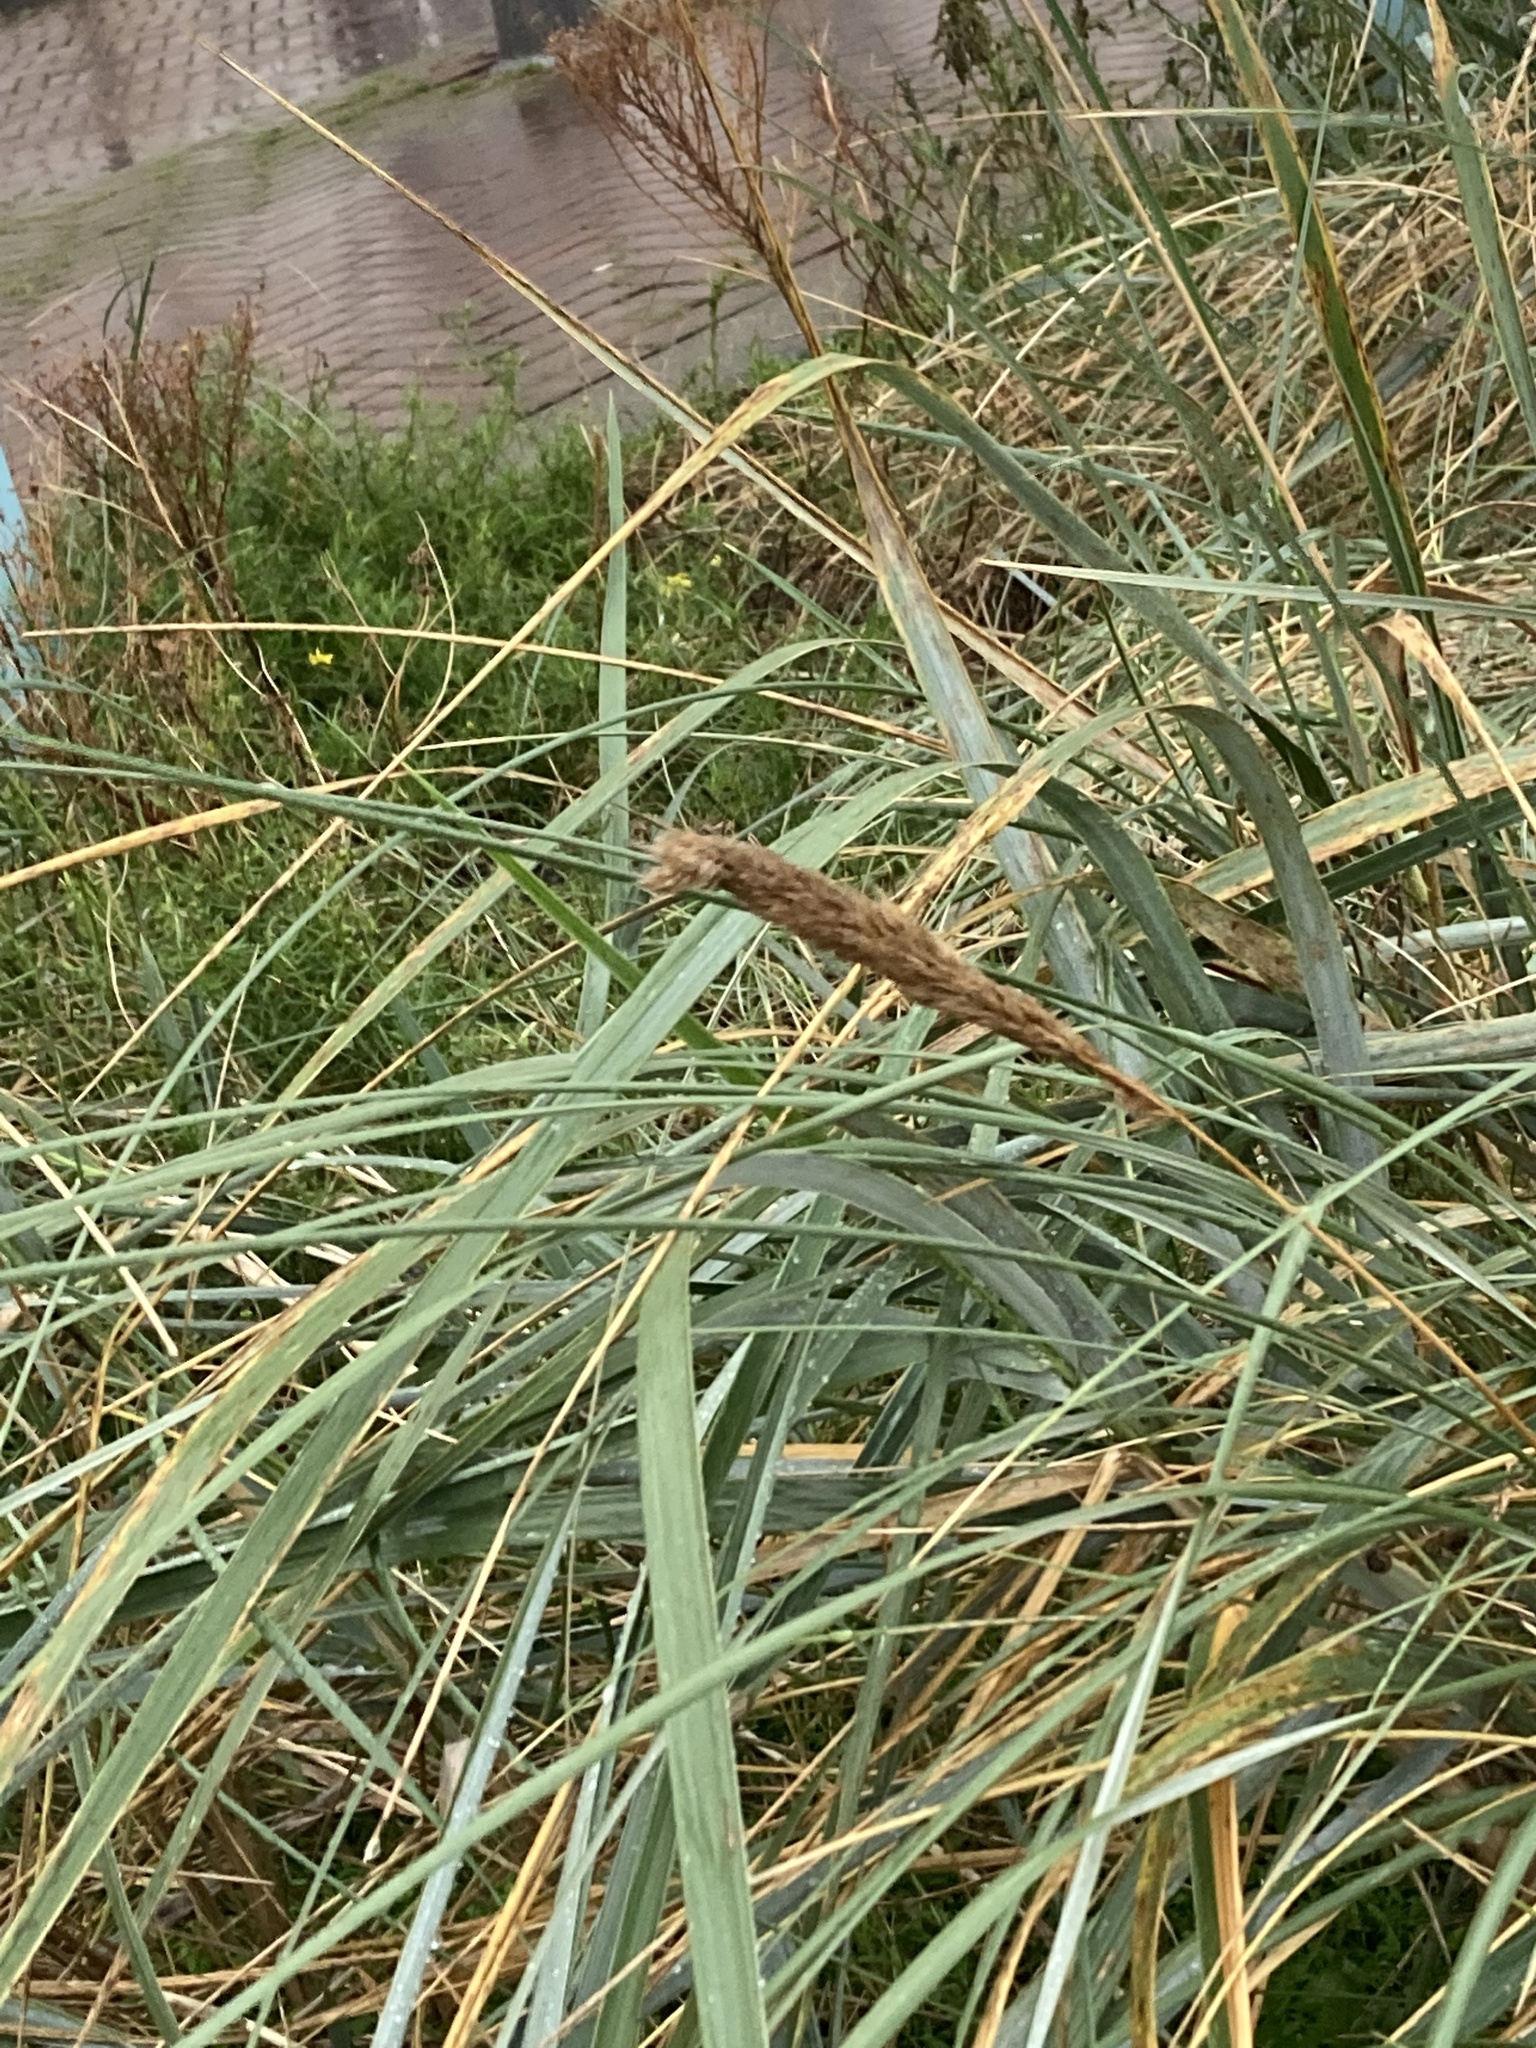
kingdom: Plantae
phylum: Tracheophyta
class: Liliopsida
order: Poales
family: Poaceae
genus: Calamagrostis
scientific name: Calamagrostis arenaria
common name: European beachgrass
